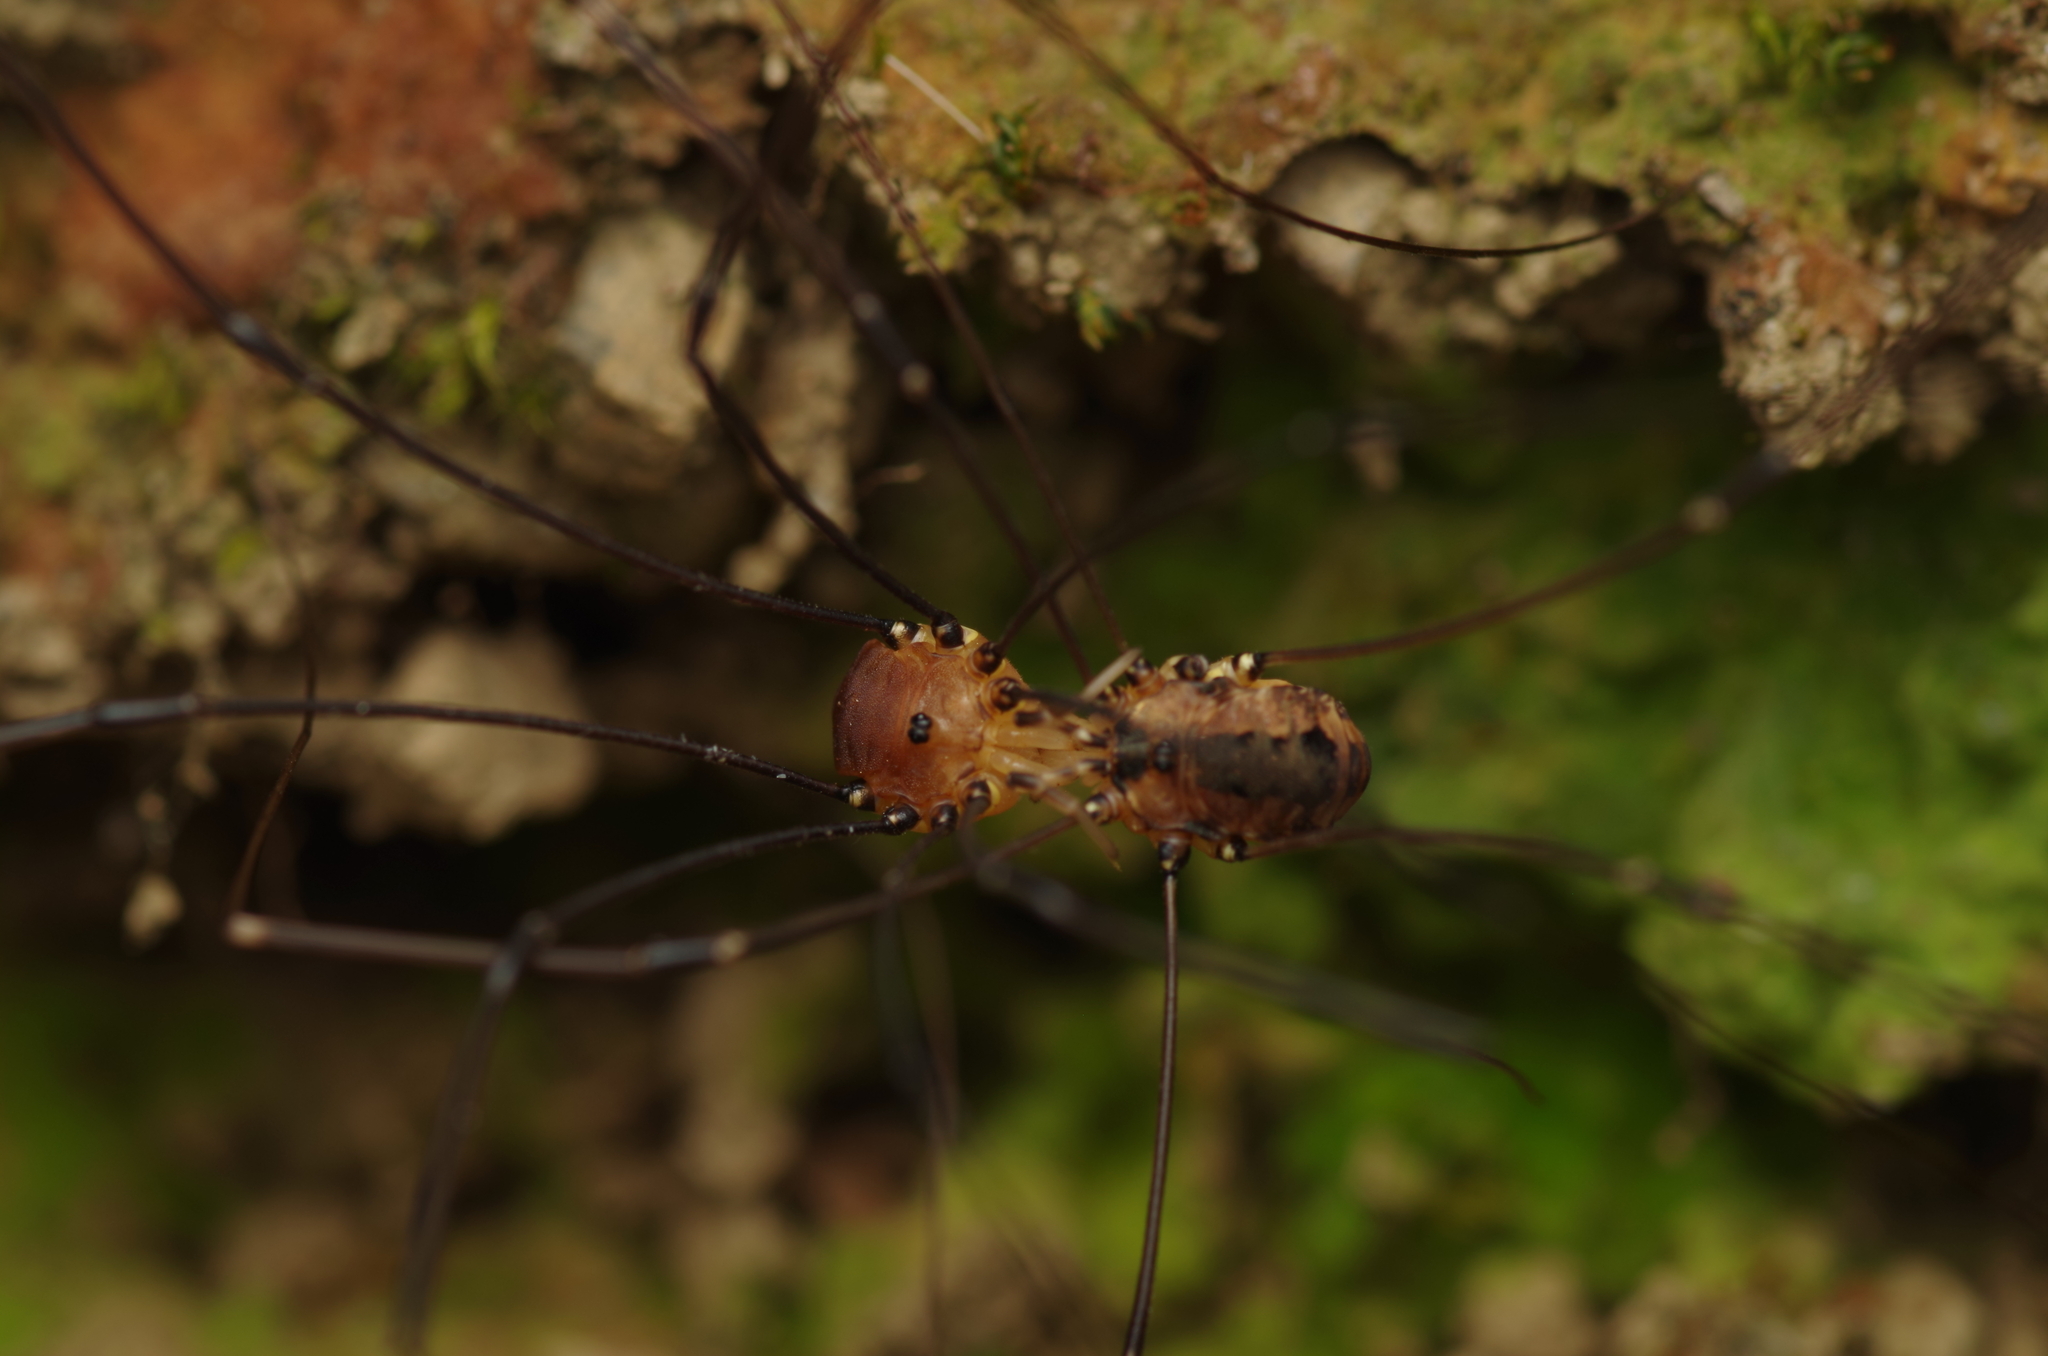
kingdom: Animalia
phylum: Arthropoda
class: Arachnida
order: Opiliones
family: Sclerosomatidae
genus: Leiobunum
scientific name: Leiobunum rotundum
